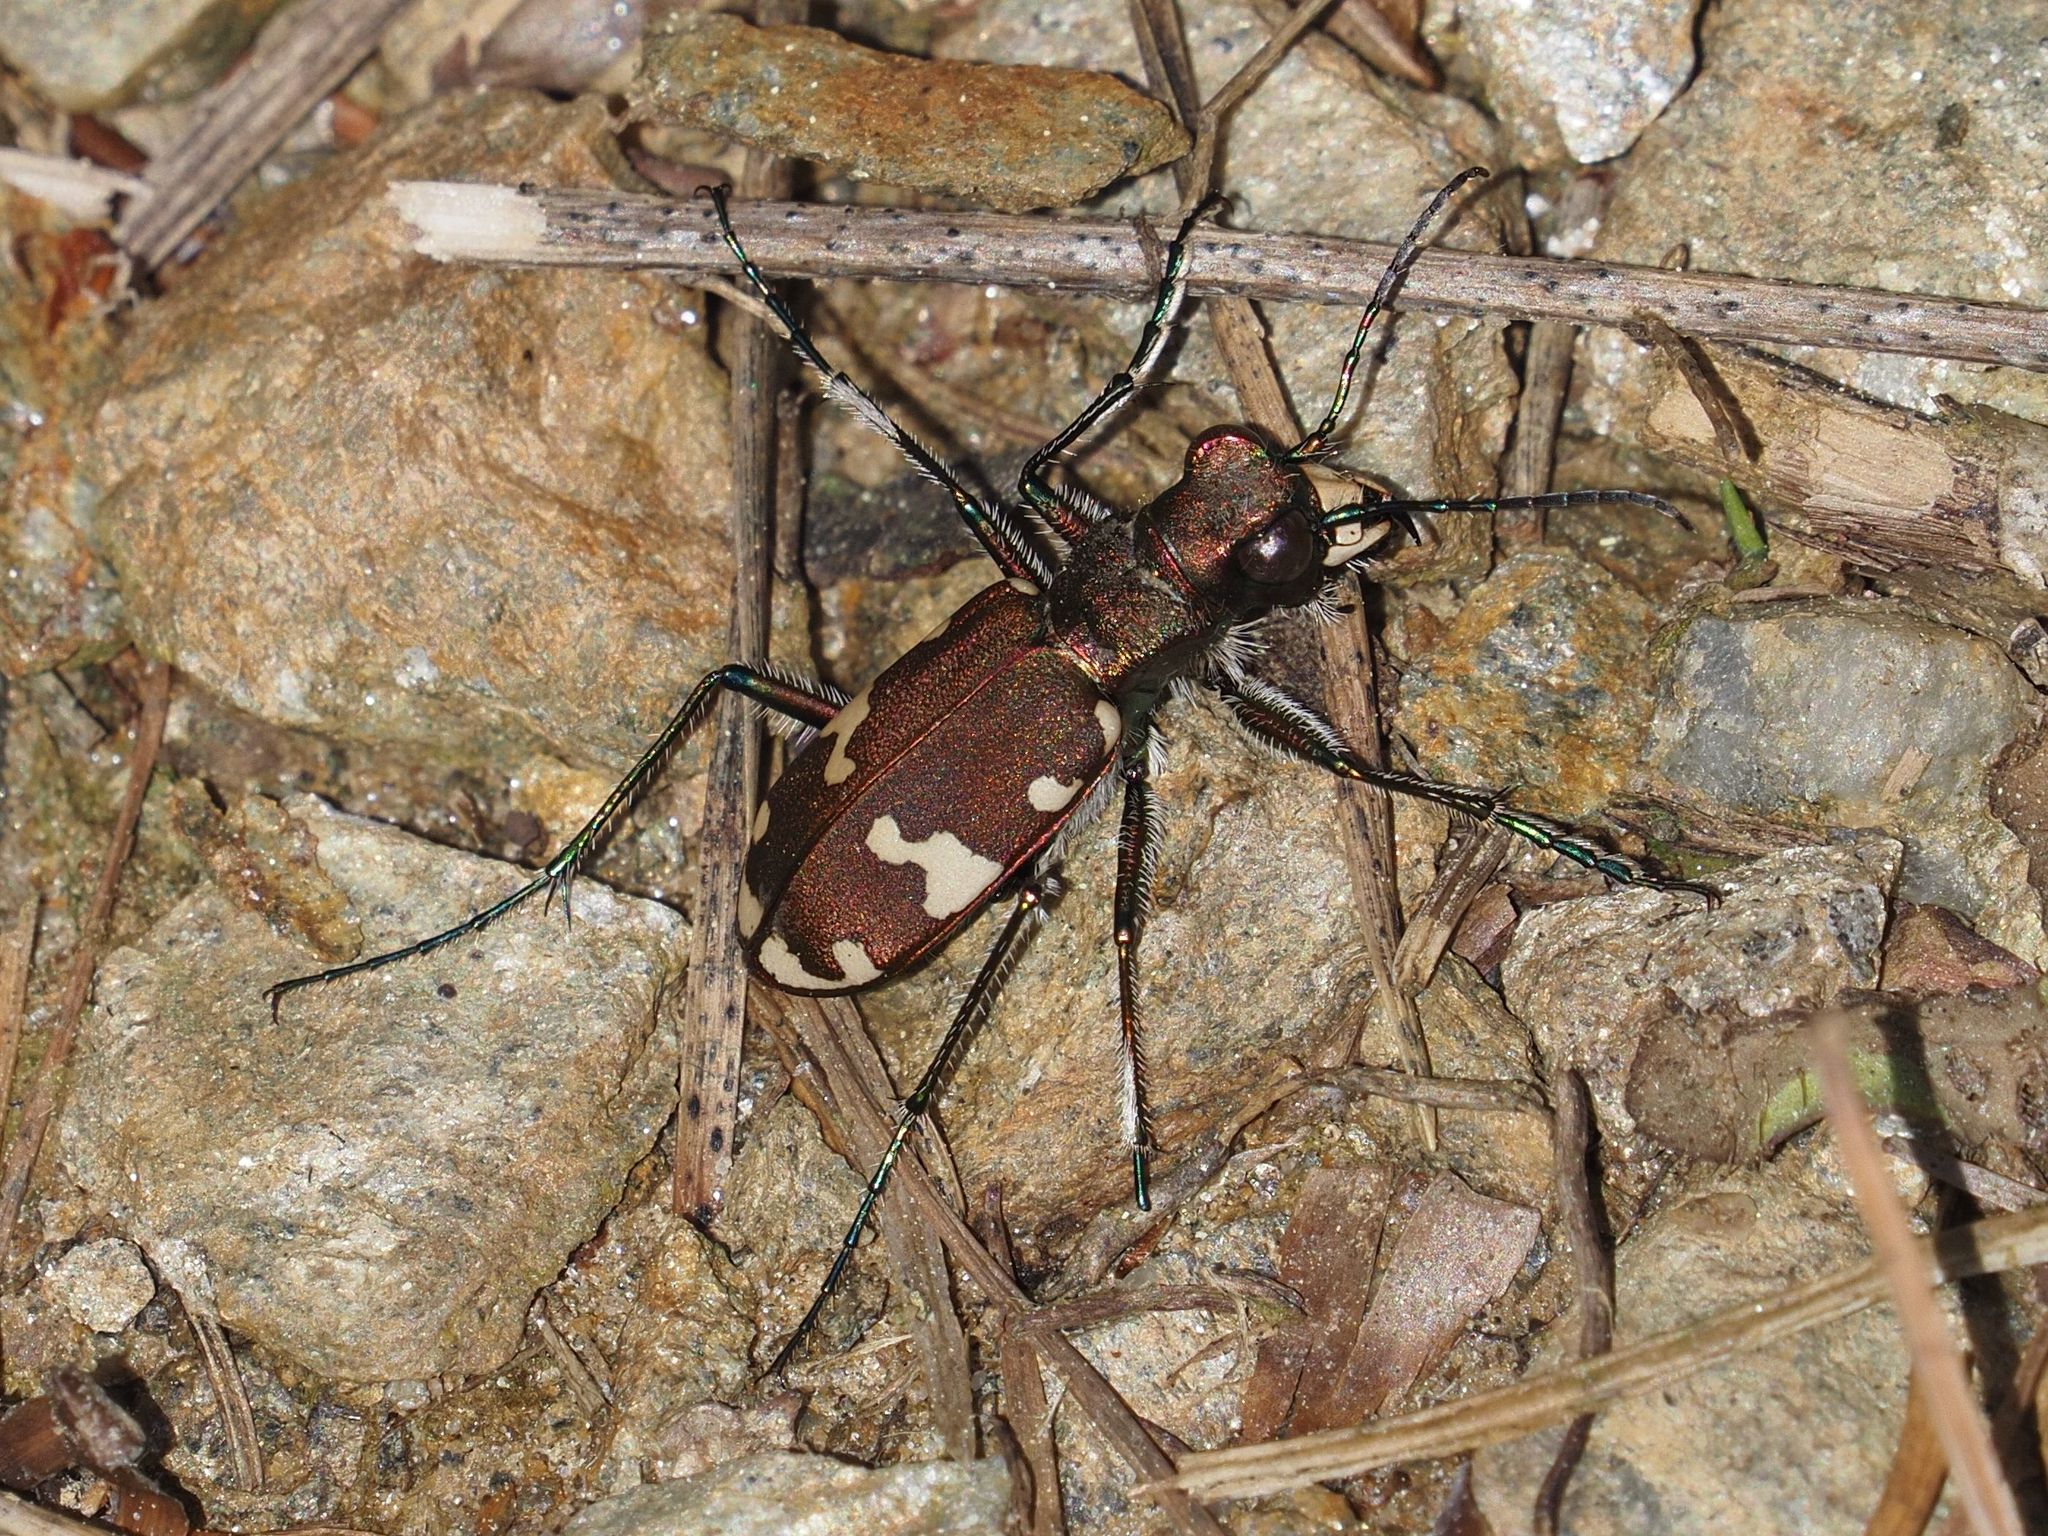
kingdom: Animalia
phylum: Arthropoda
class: Insecta
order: Coleoptera
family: Carabidae
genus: Cicindela
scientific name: Cicindela sylvicola
